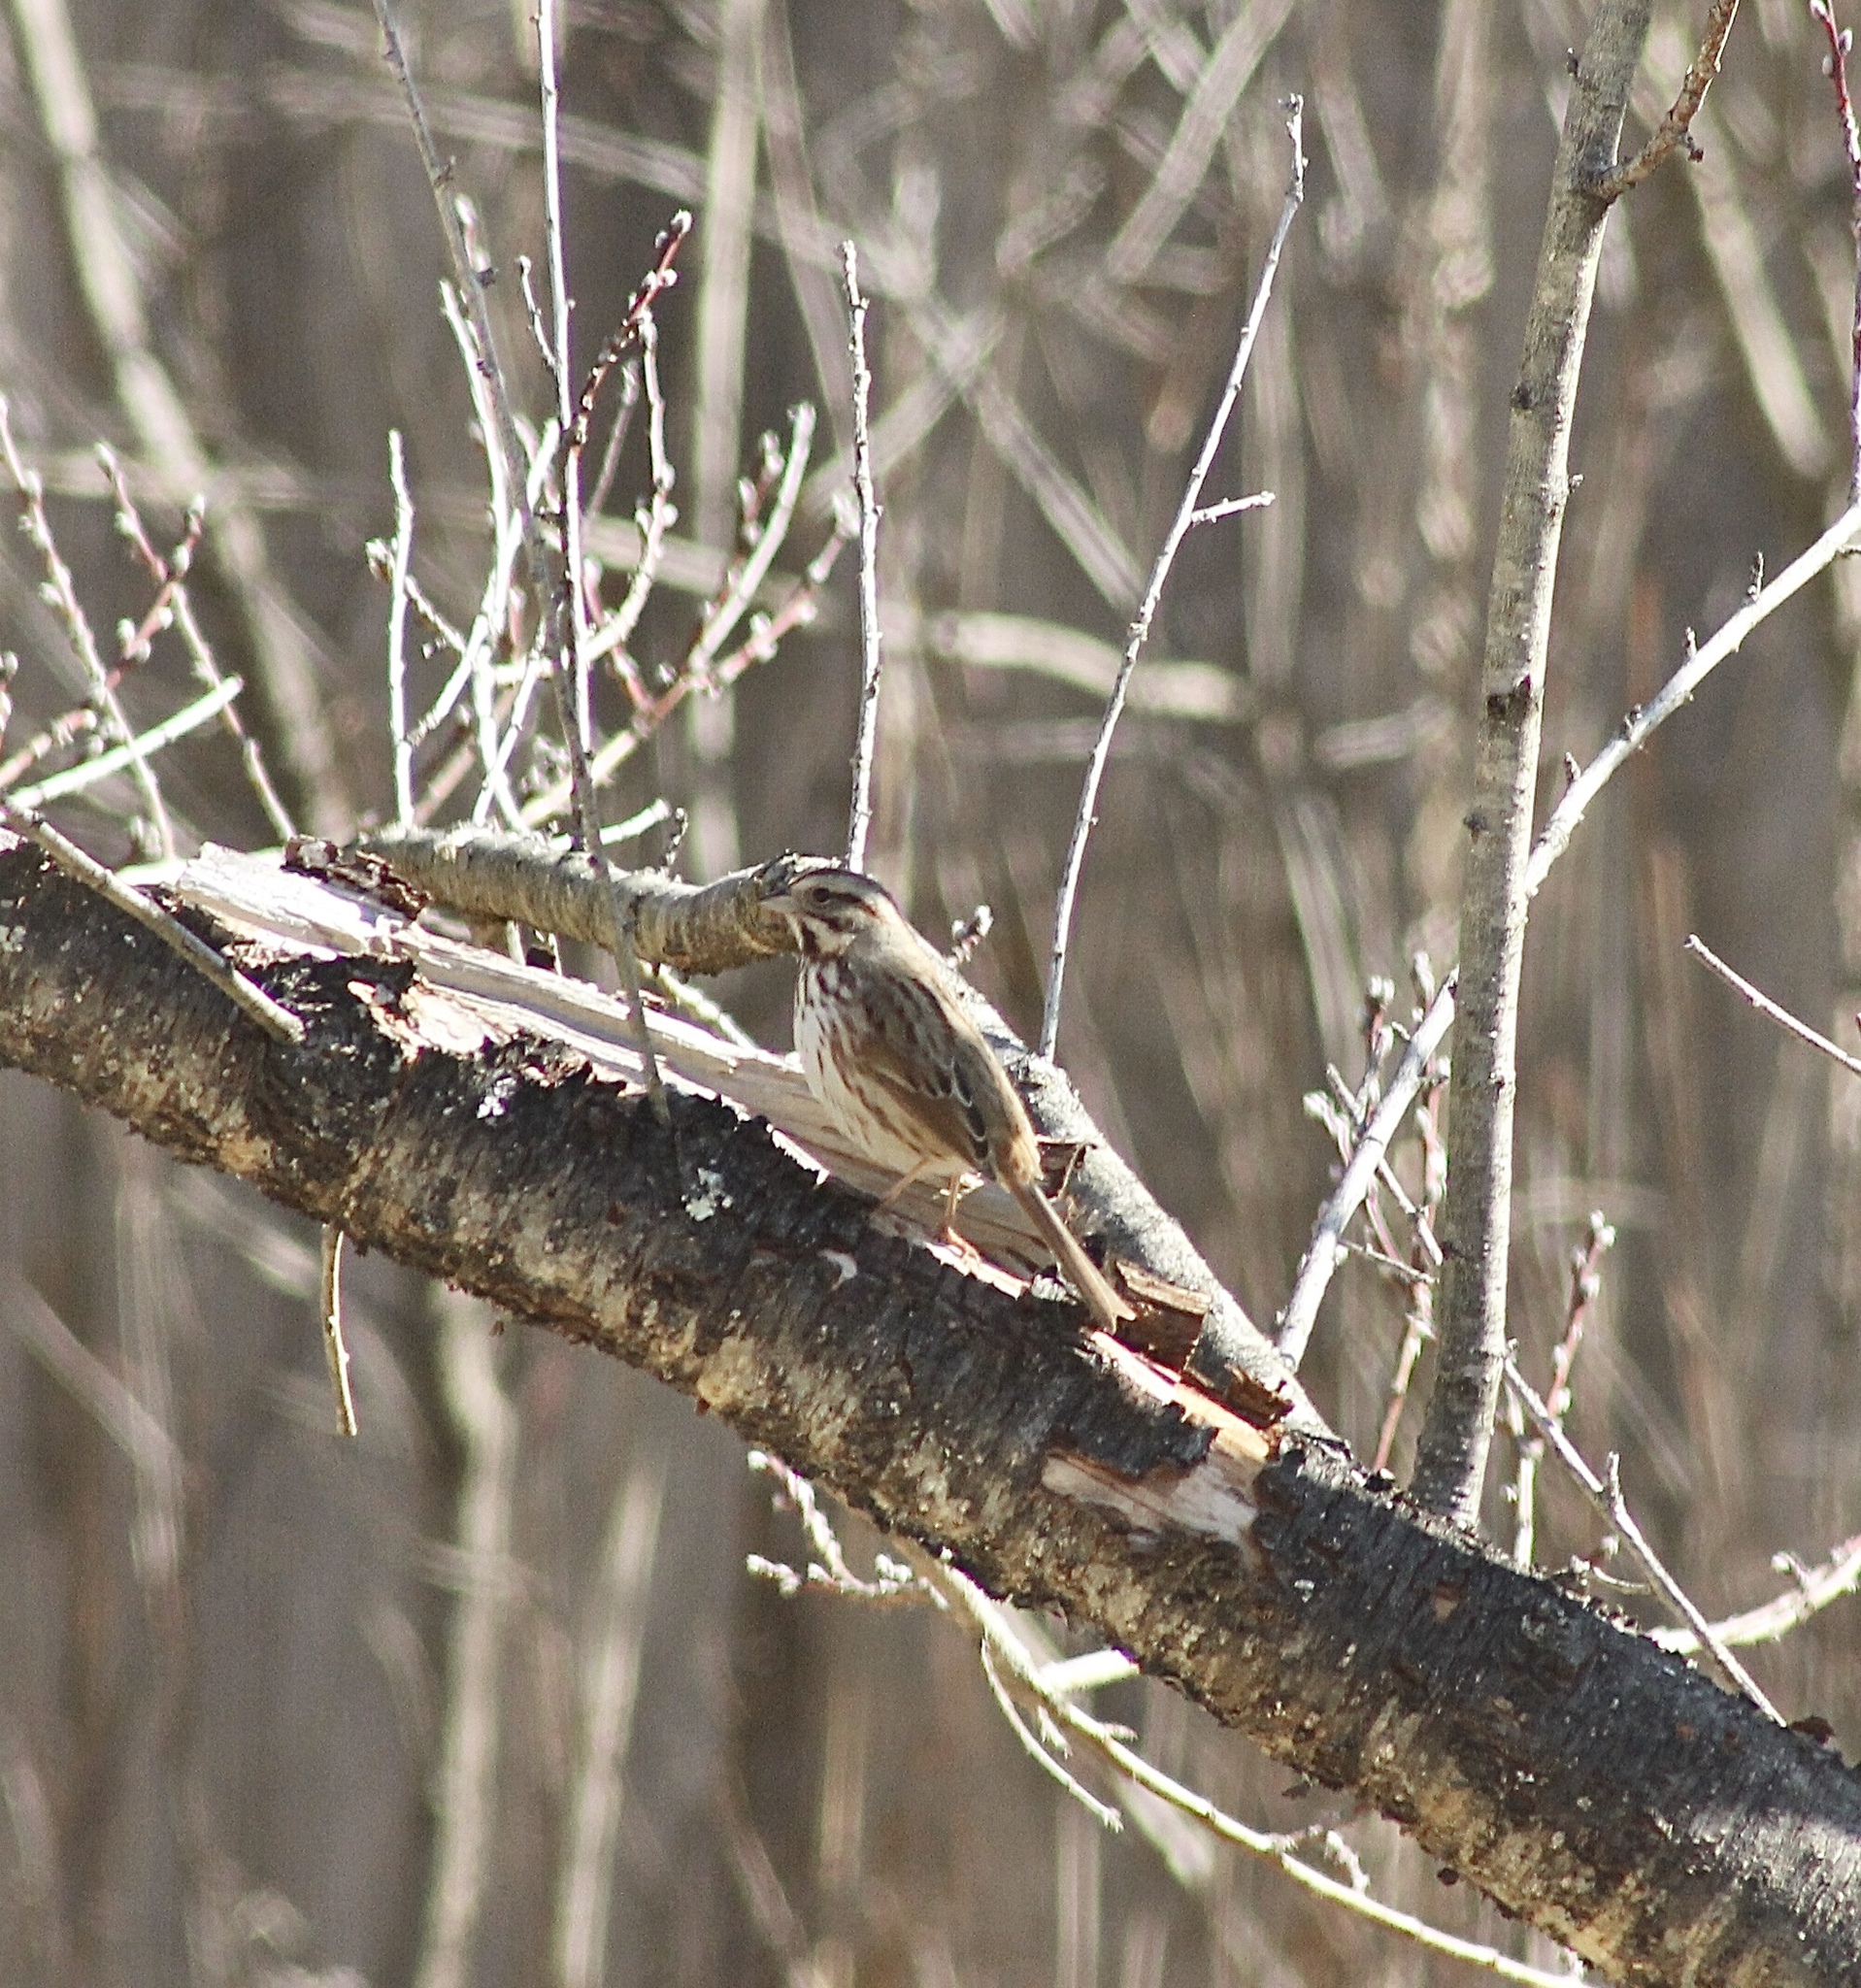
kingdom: Animalia
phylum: Chordata
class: Aves
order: Passeriformes
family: Passerellidae
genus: Melospiza
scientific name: Melospiza melodia
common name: Song sparrow
